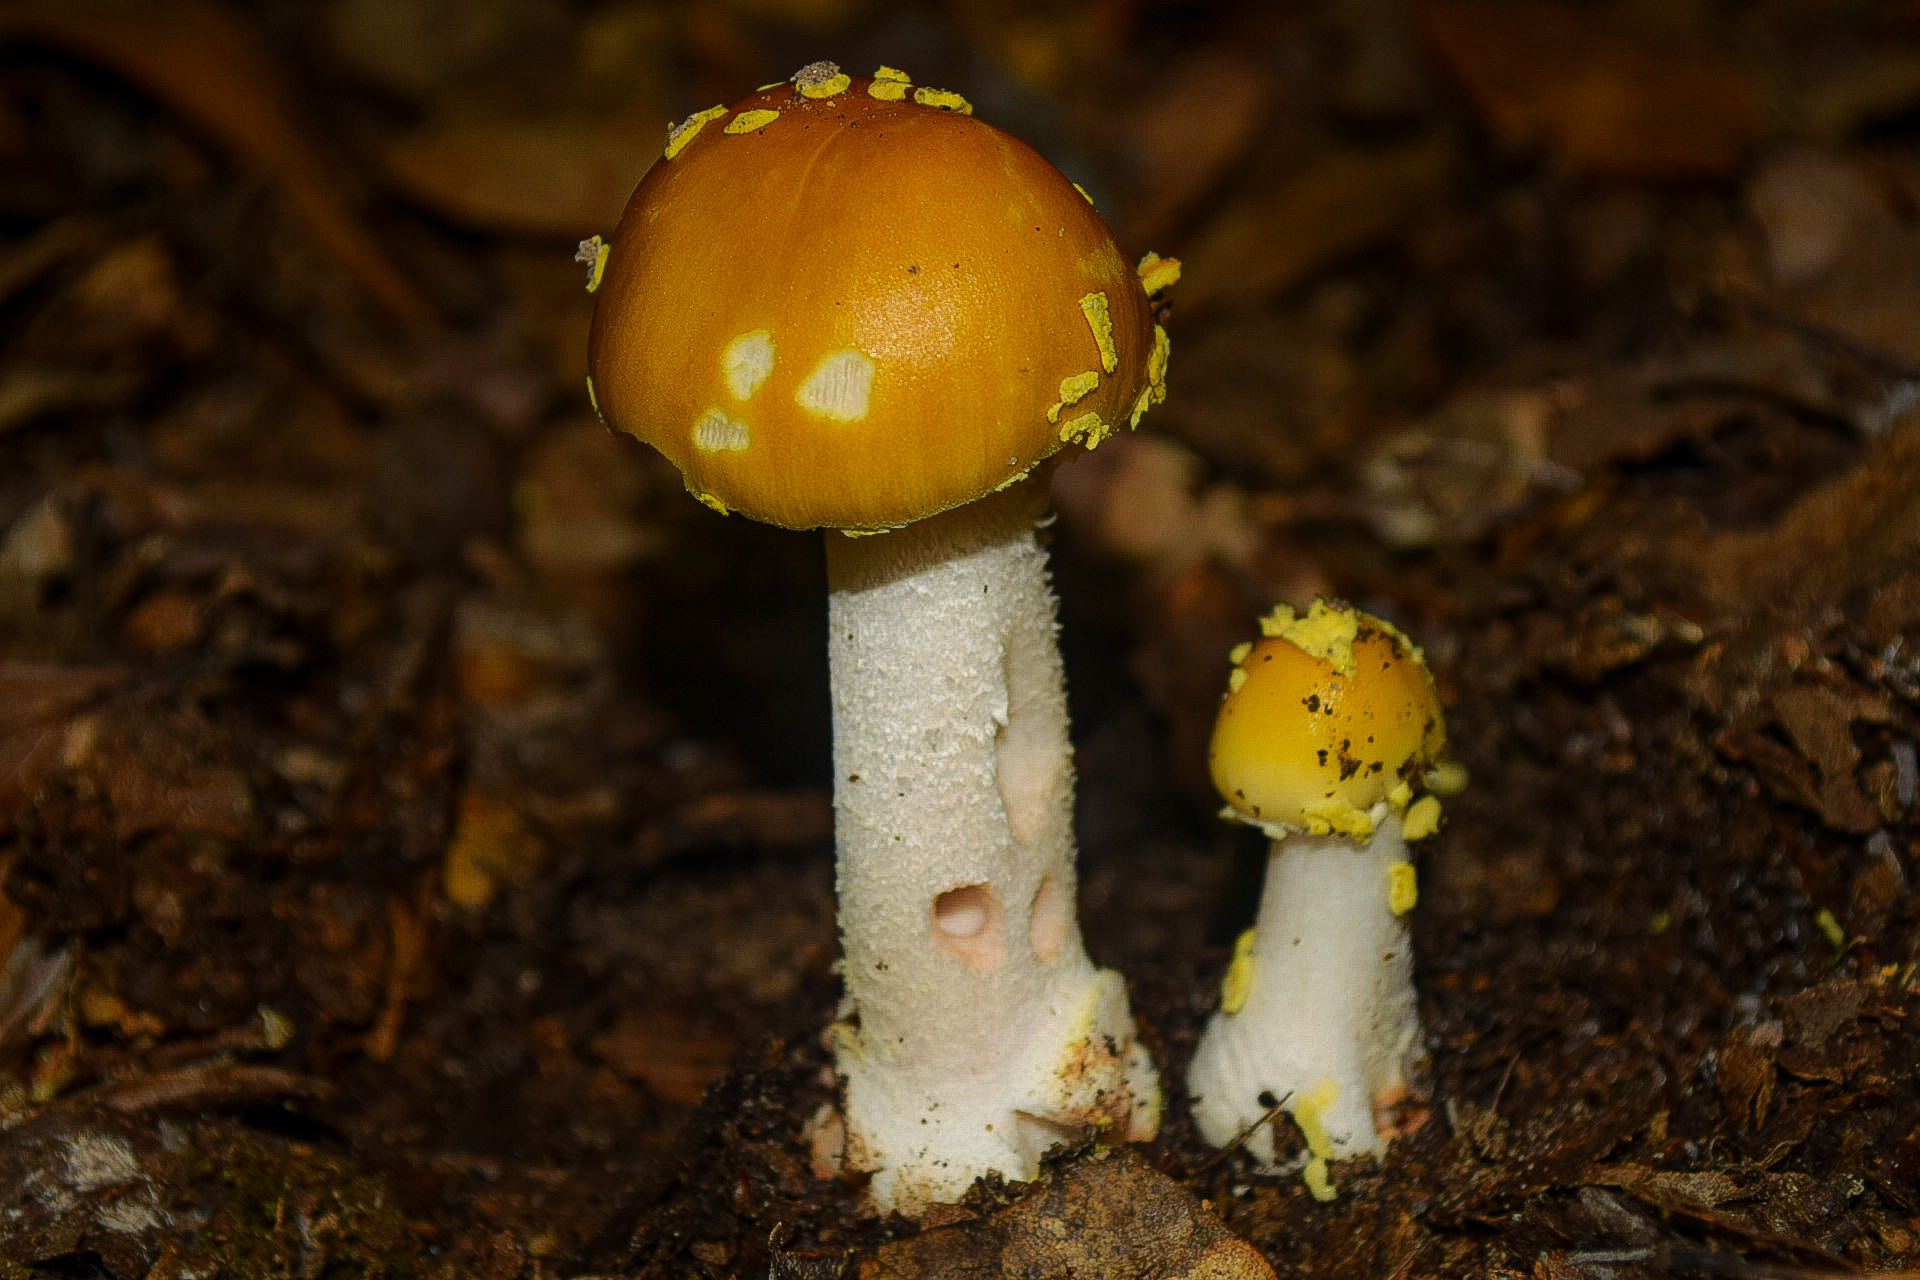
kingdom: Fungi
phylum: Basidiomycota
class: Agaricomycetes
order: Agaricales
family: Amanitaceae
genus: Amanita
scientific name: Amanita flavorubens
